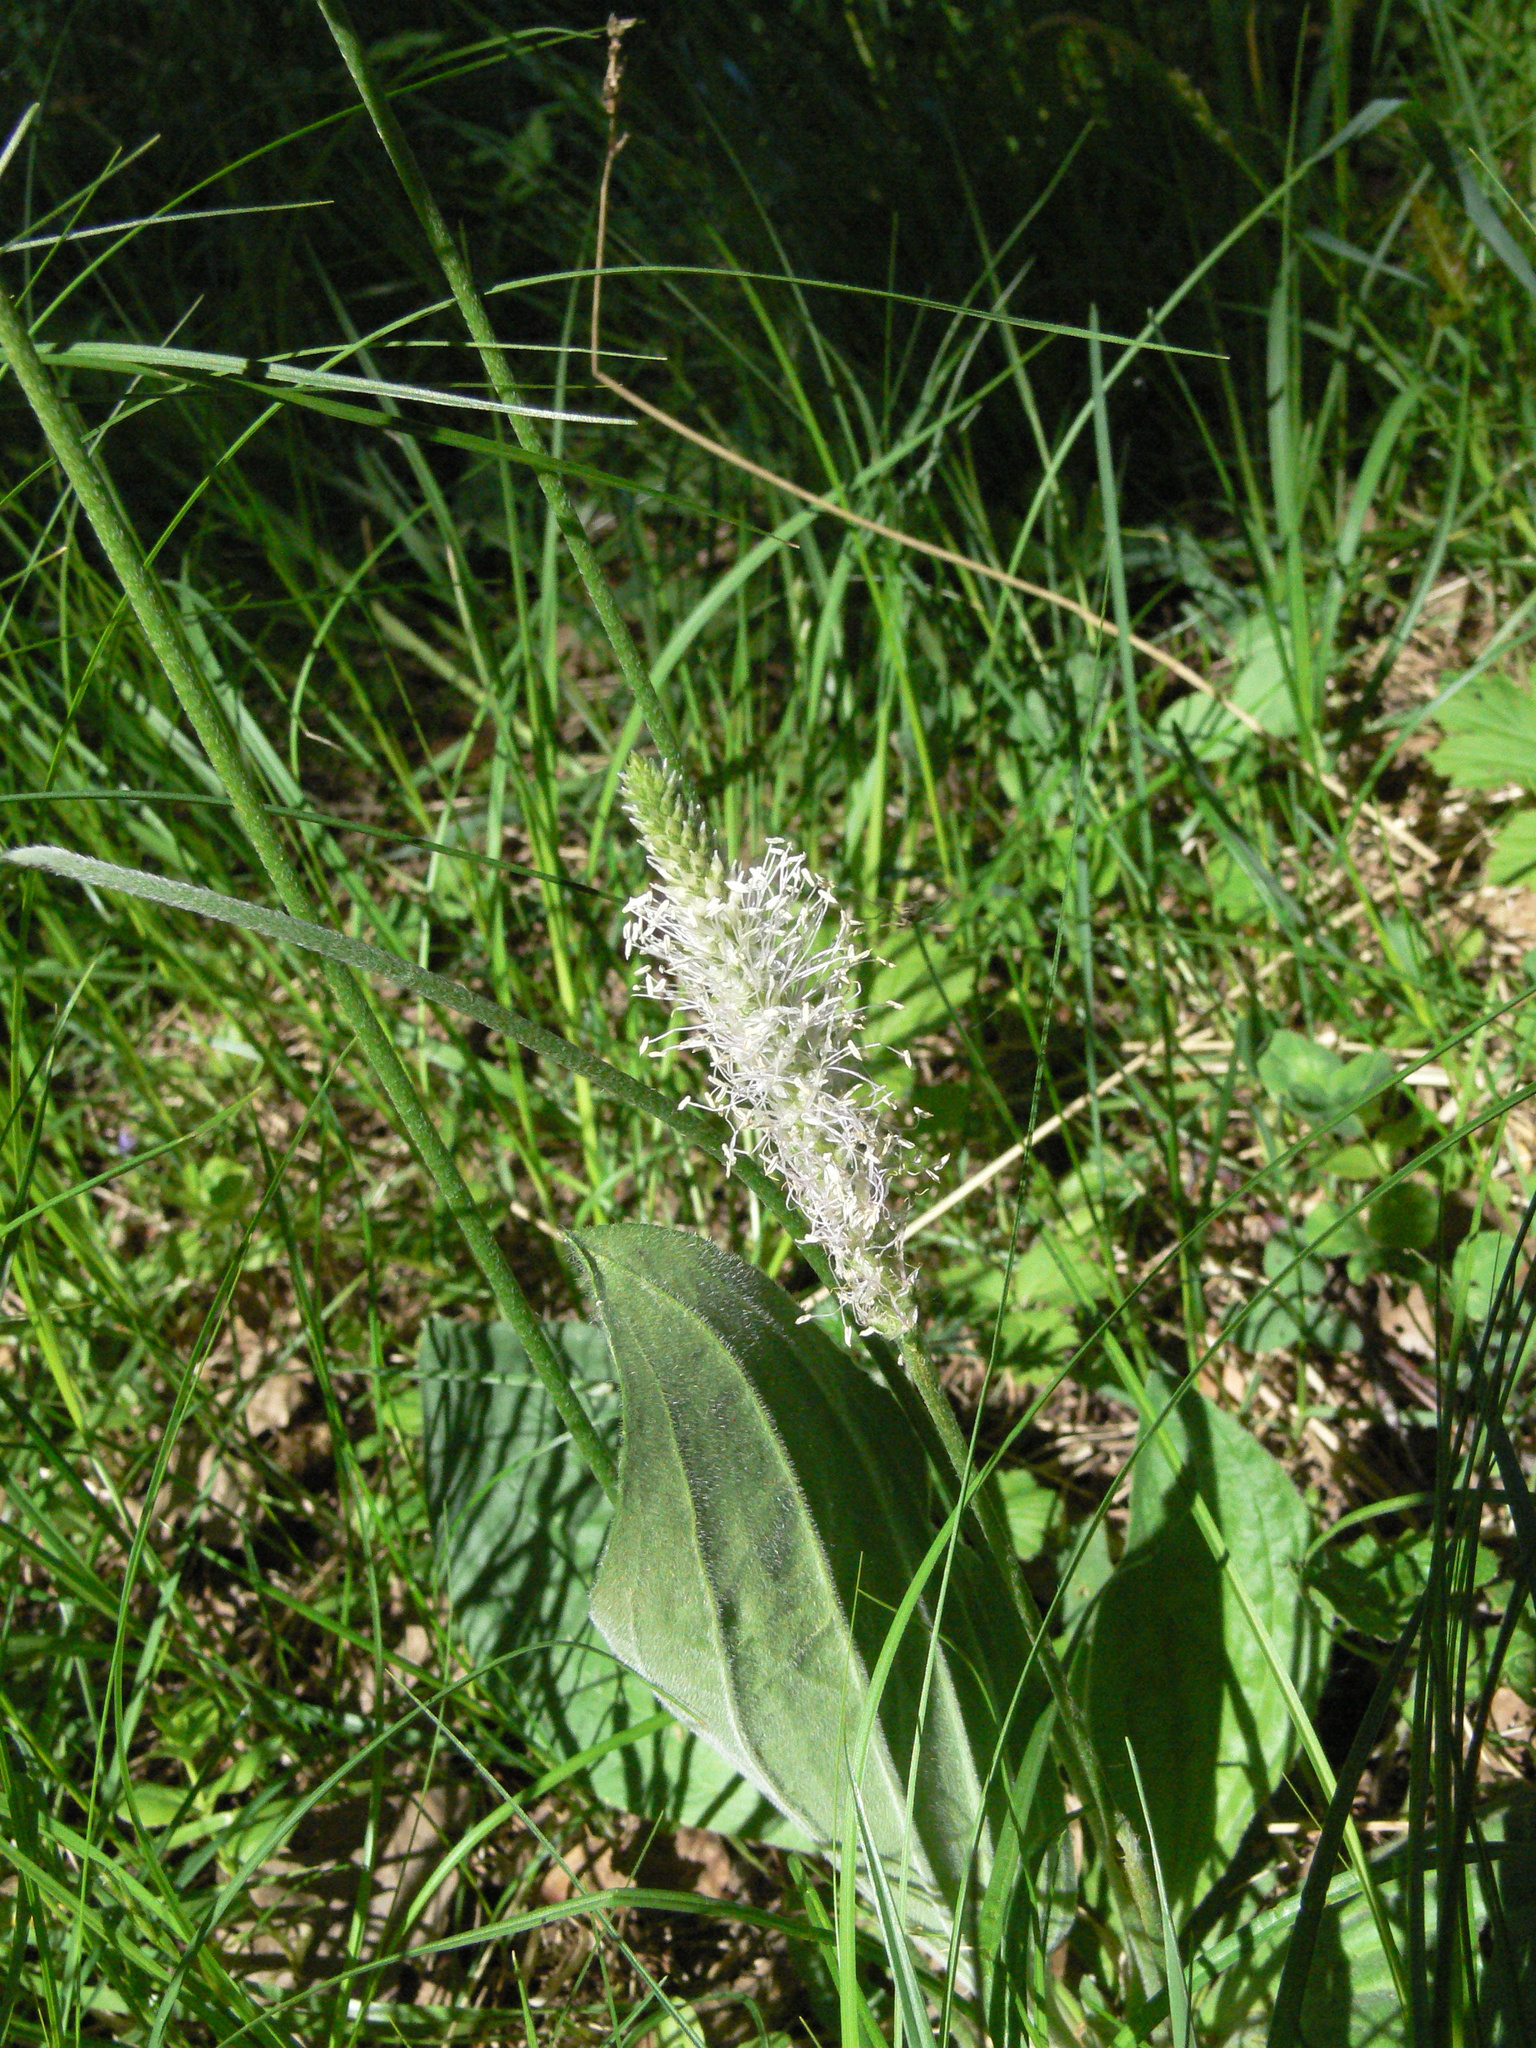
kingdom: Plantae
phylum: Tracheophyta
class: Magnoliopsida
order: Lamiales
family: Plantaginaceae
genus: Plantago
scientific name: Plantago media
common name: Hoary plantain
